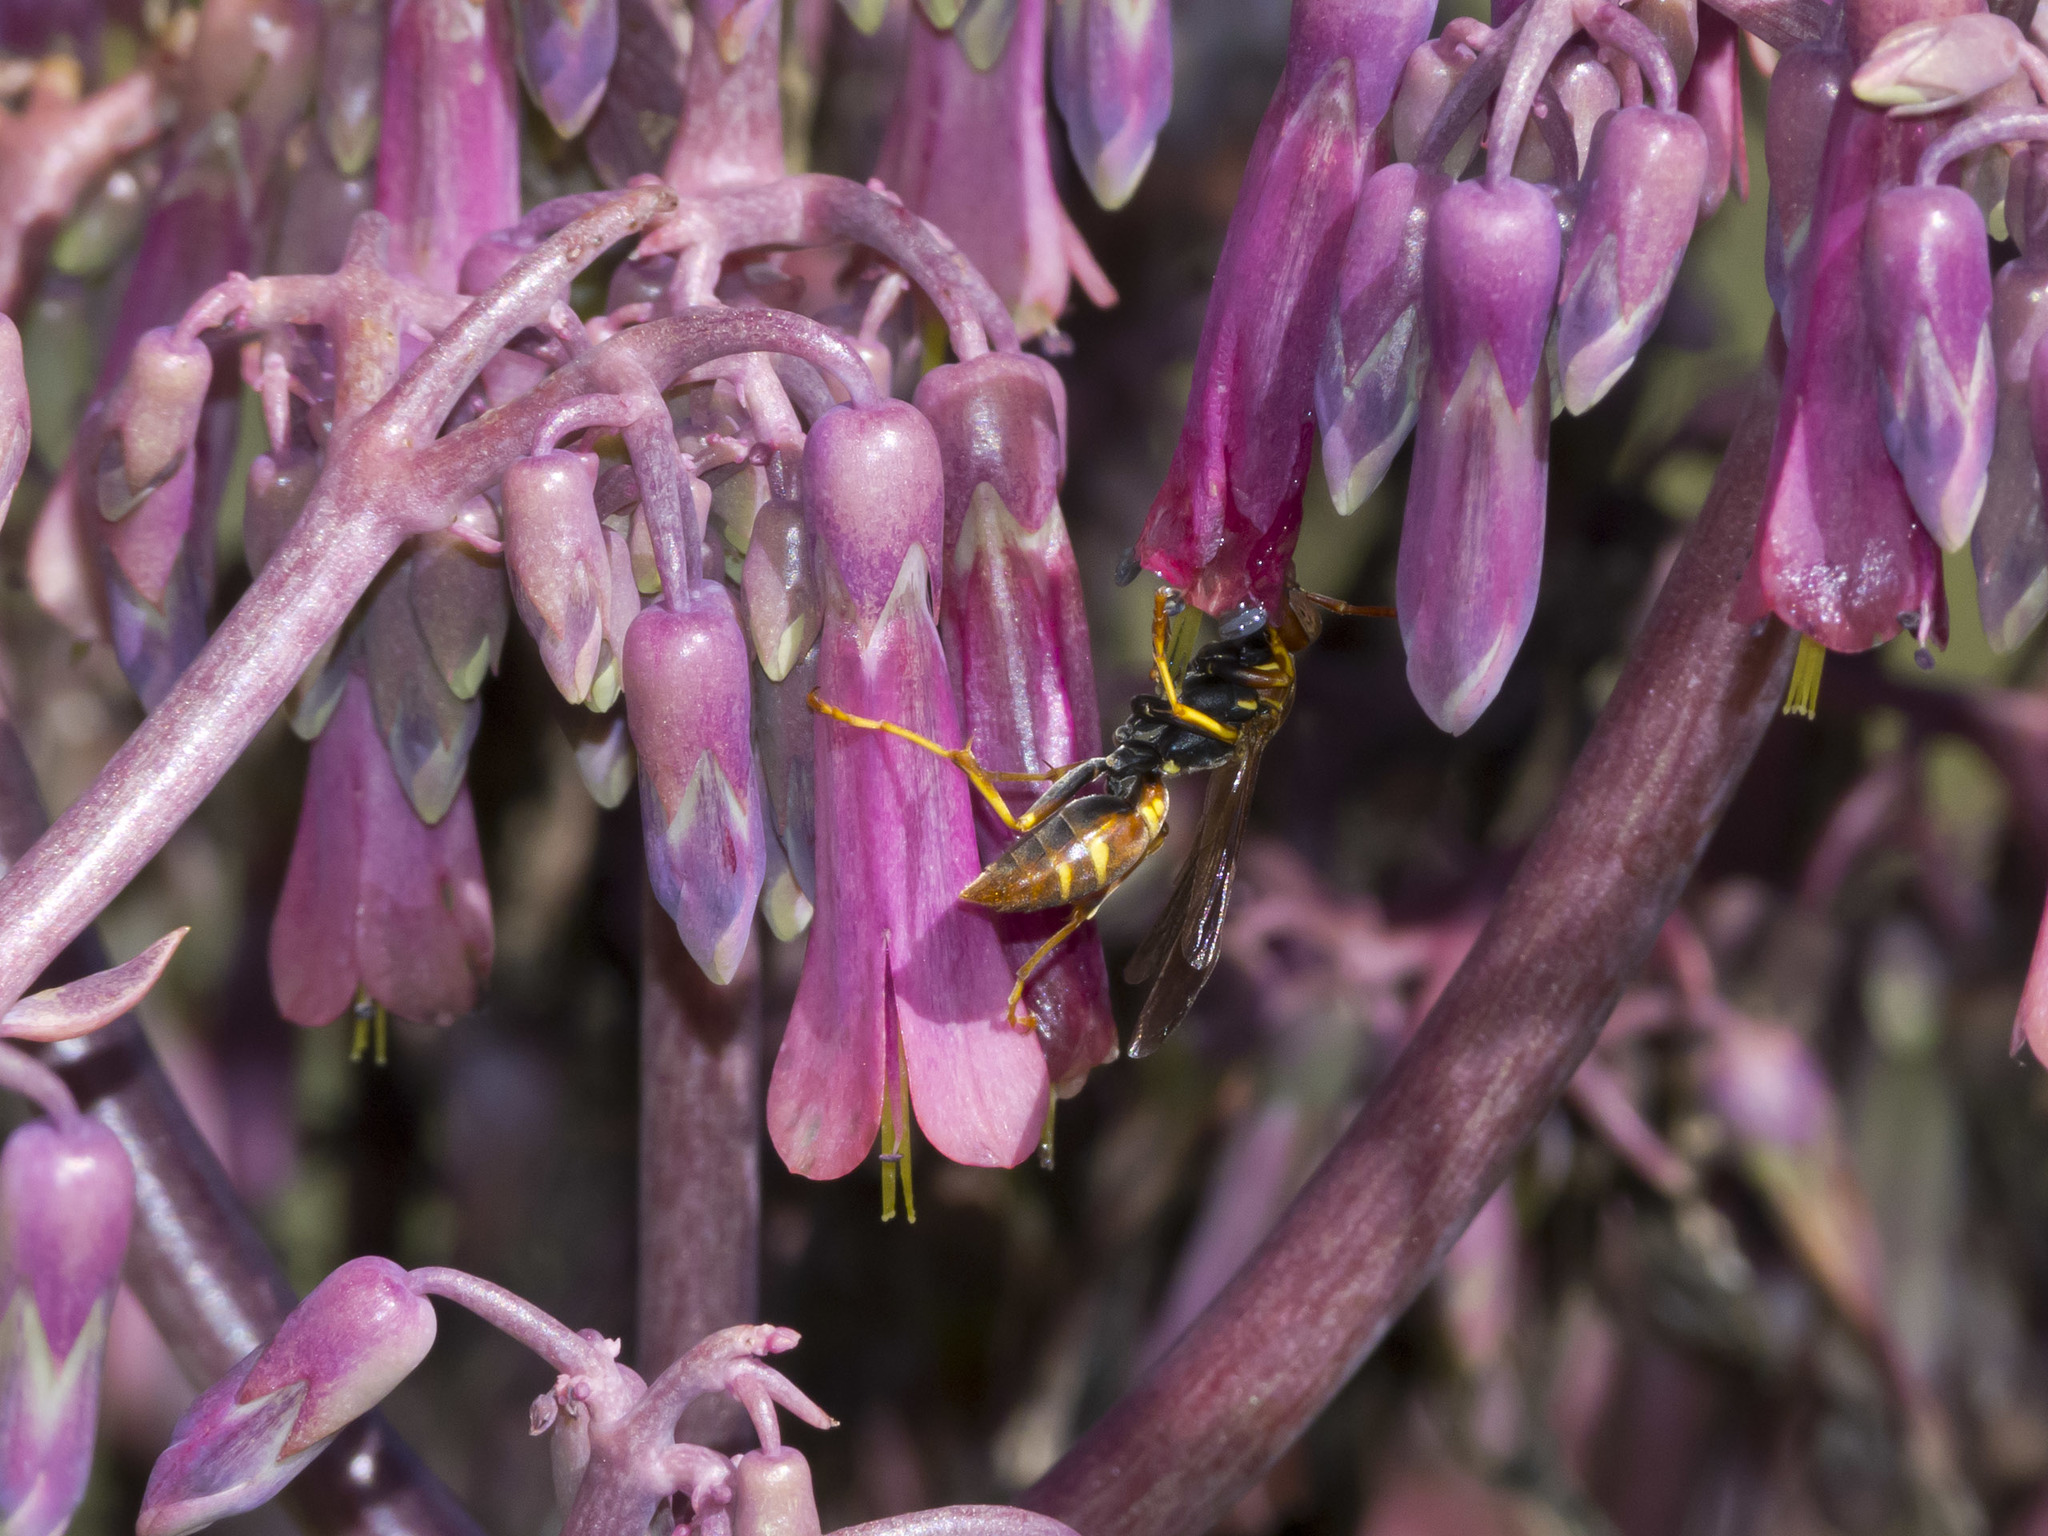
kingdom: Animalia
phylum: Arthropoda
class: Insecta
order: Hymenoptera
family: Eumenidae
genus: Polistes
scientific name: Polistes instabilis
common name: Unstable paper wasp
